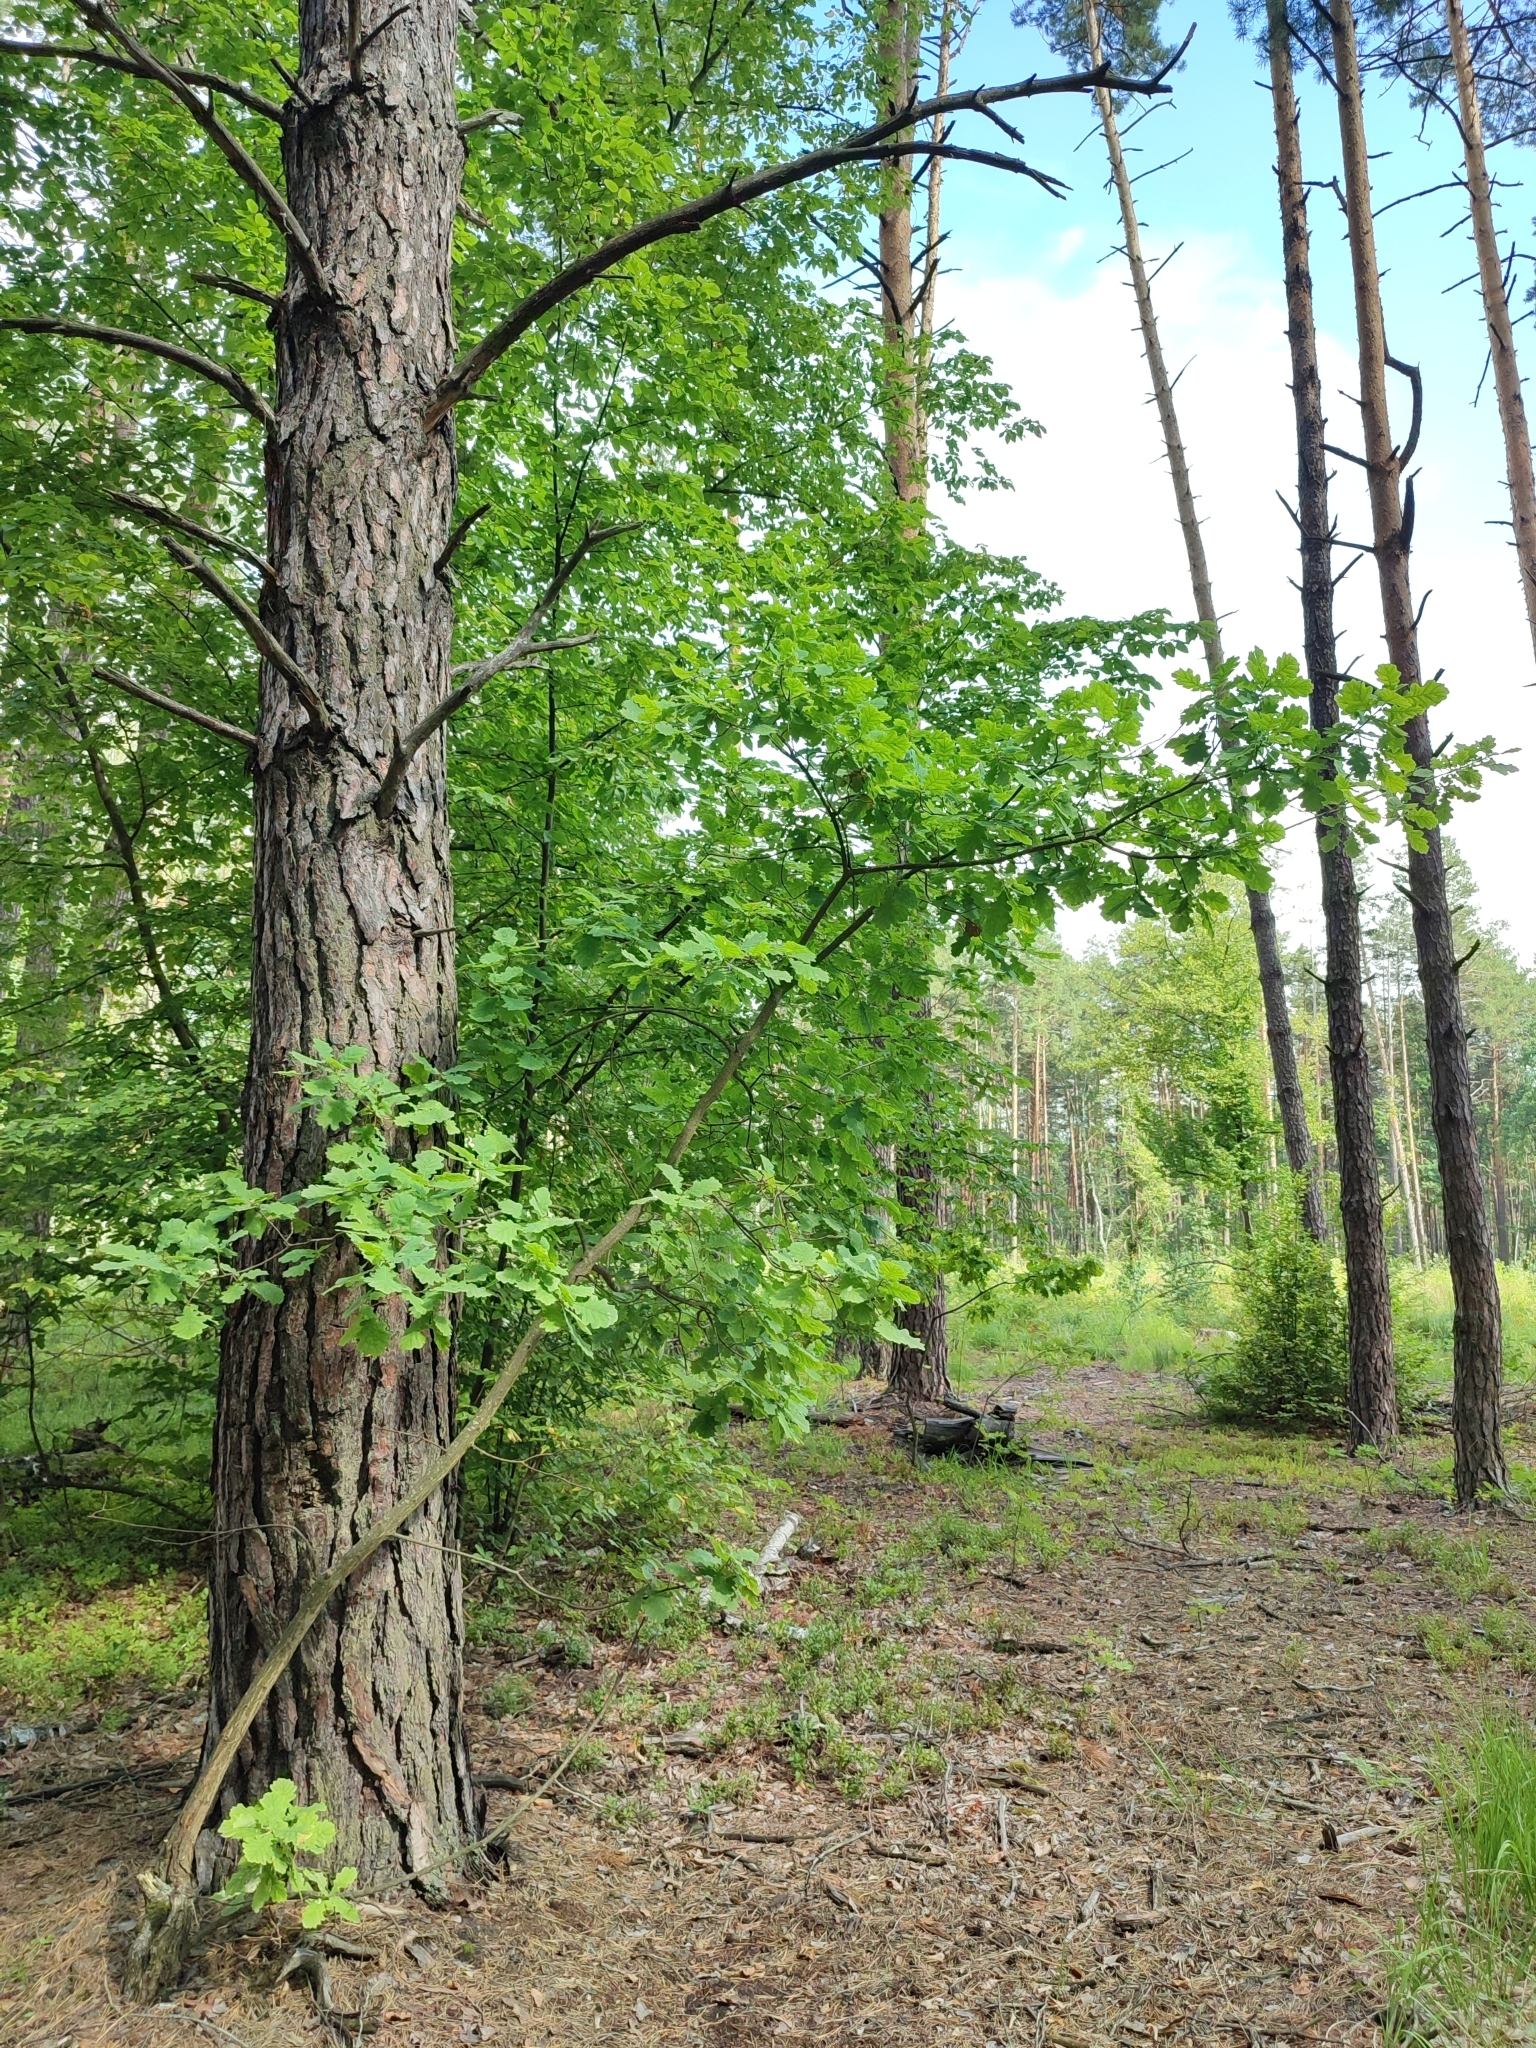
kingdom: Plantae
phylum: Tracheophyta
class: Magnoliopsida
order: Fagales
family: Fagaceae
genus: Quercus
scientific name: Quercus robur
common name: Pedunculate oak
